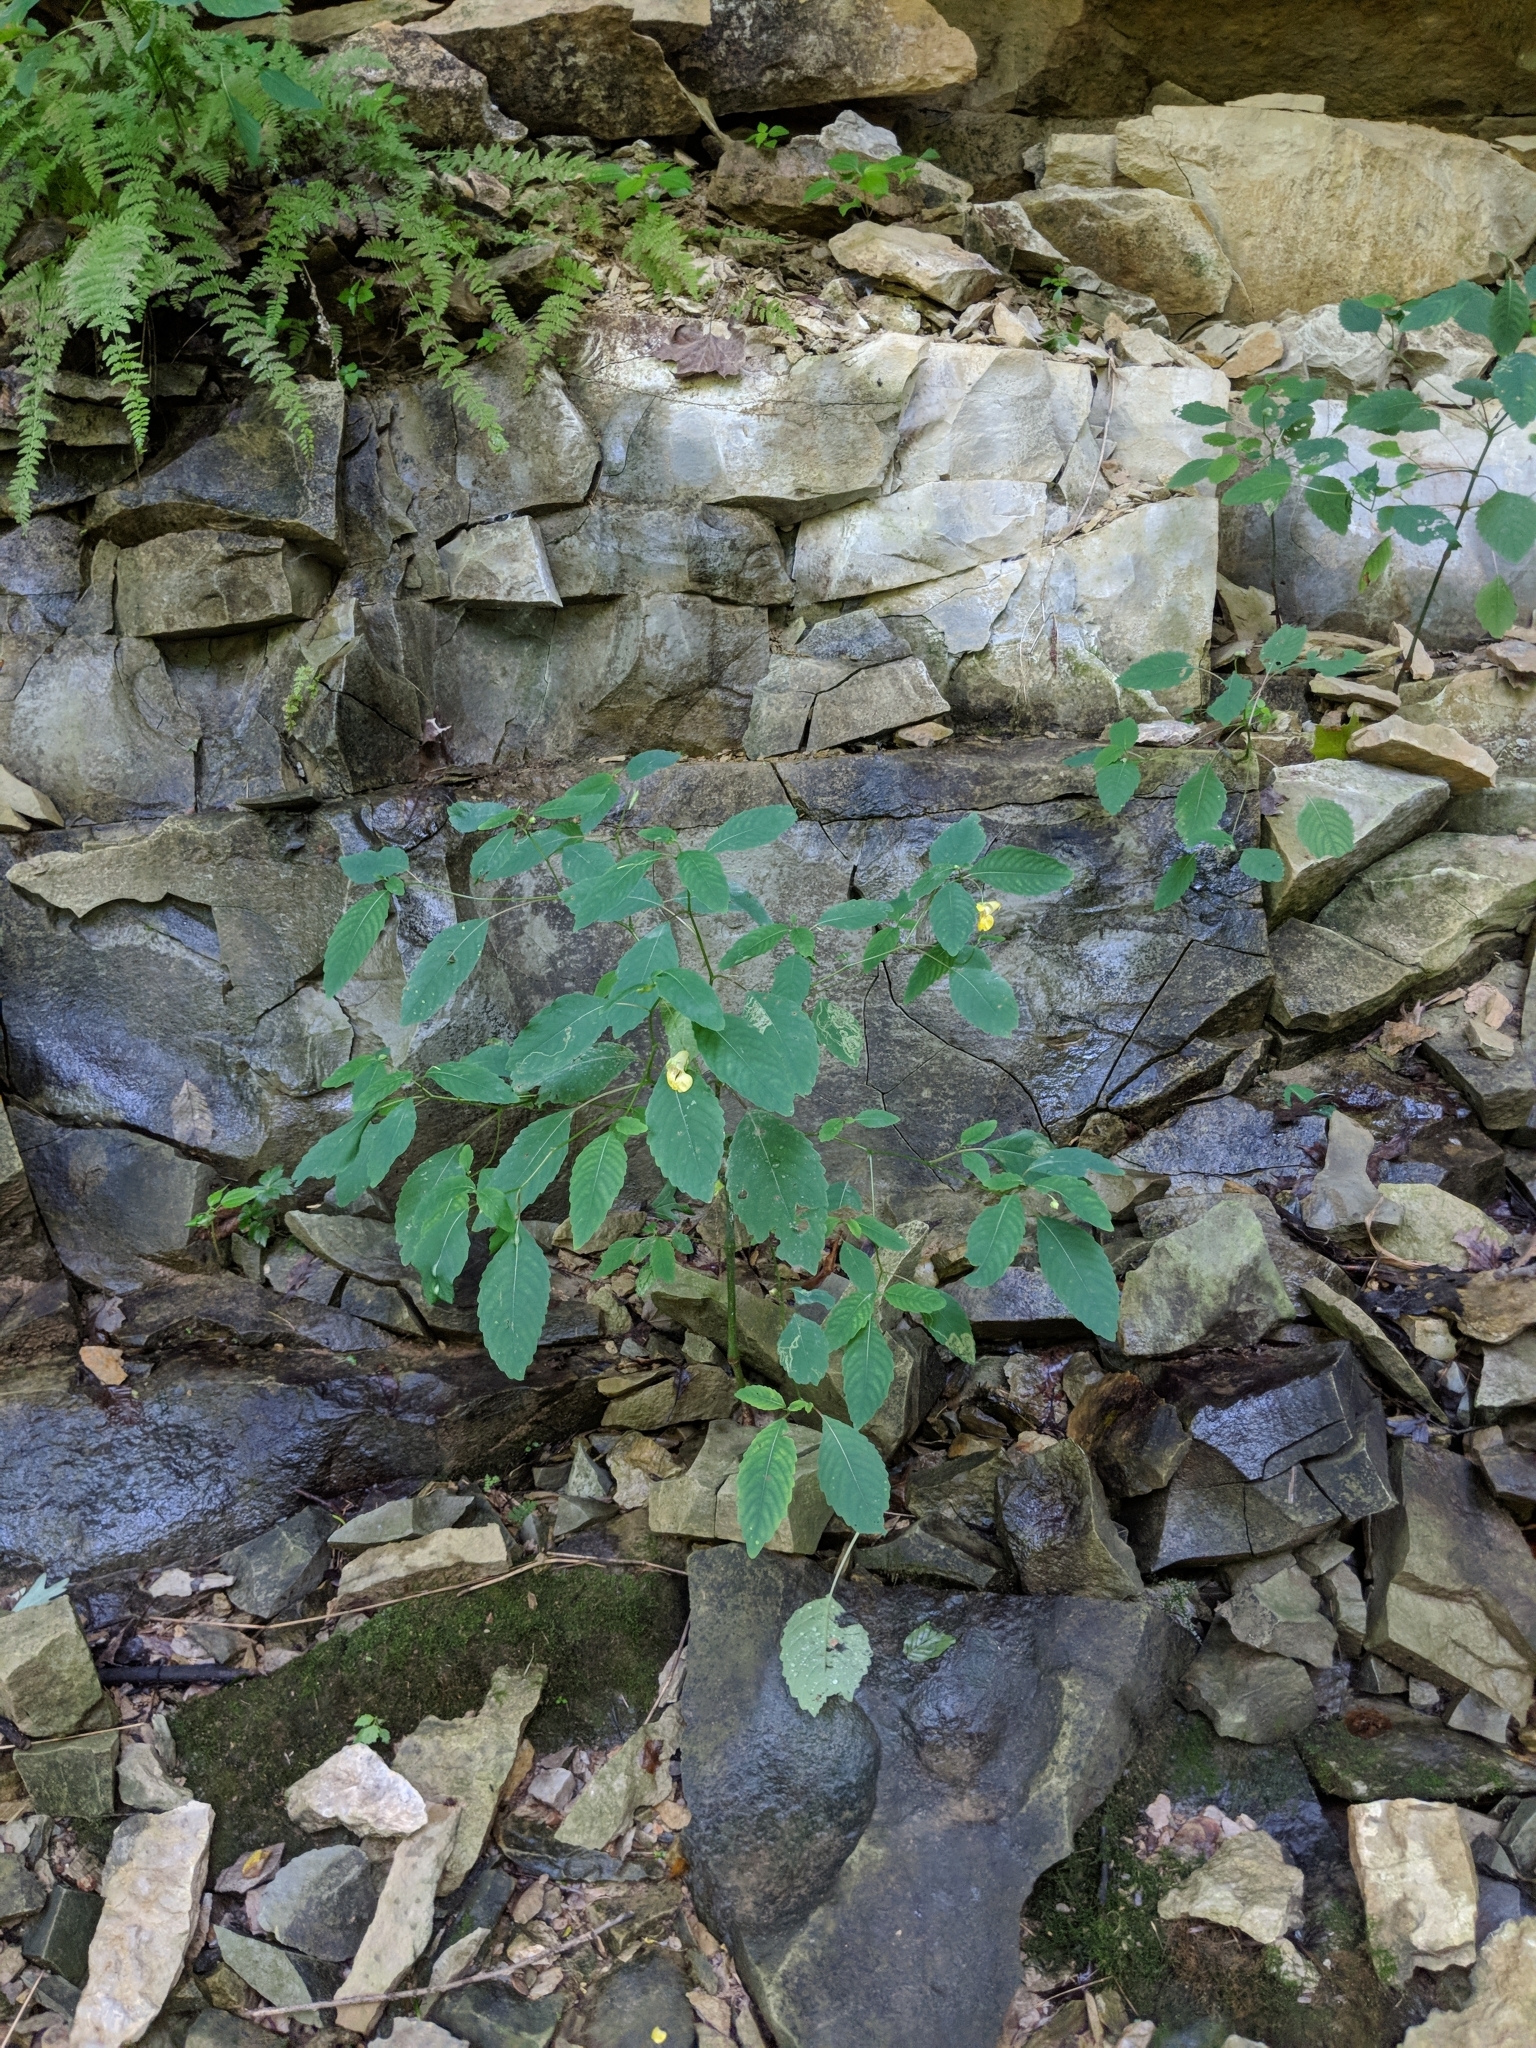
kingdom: Plantae
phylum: Tracheophyta
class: Magnoliopsida
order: Ericales
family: Balsaminaceae
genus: Impatiens
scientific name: Impatiens pallida
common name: Pale snapweed
